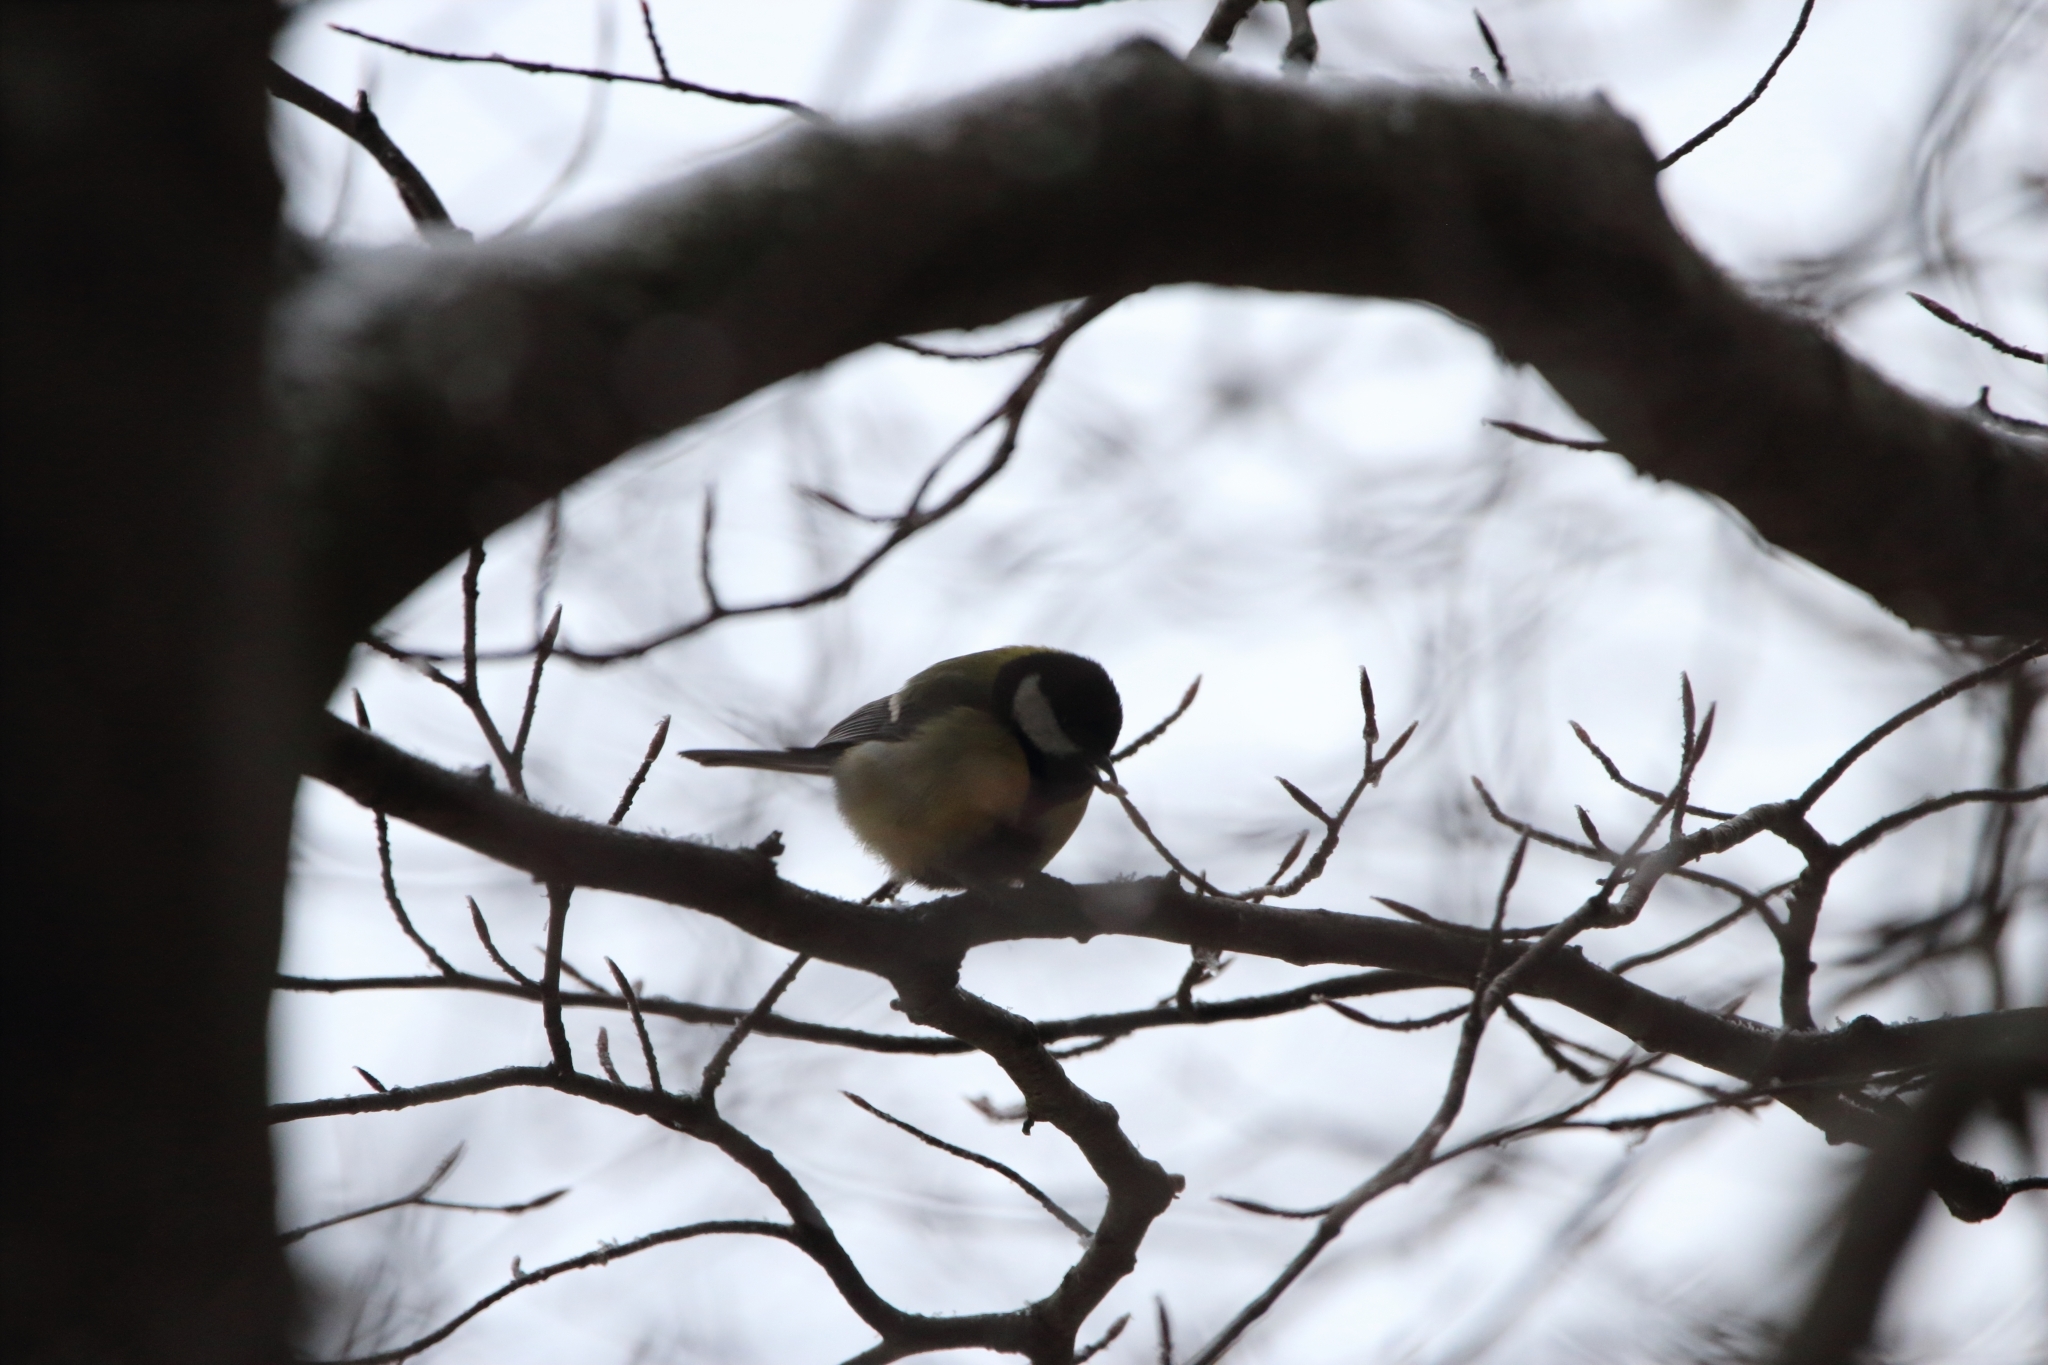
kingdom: Animalia
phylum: Chordata
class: Aves
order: Passeriformes
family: Paridae
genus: Parus
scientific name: Parus major
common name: Great tit
